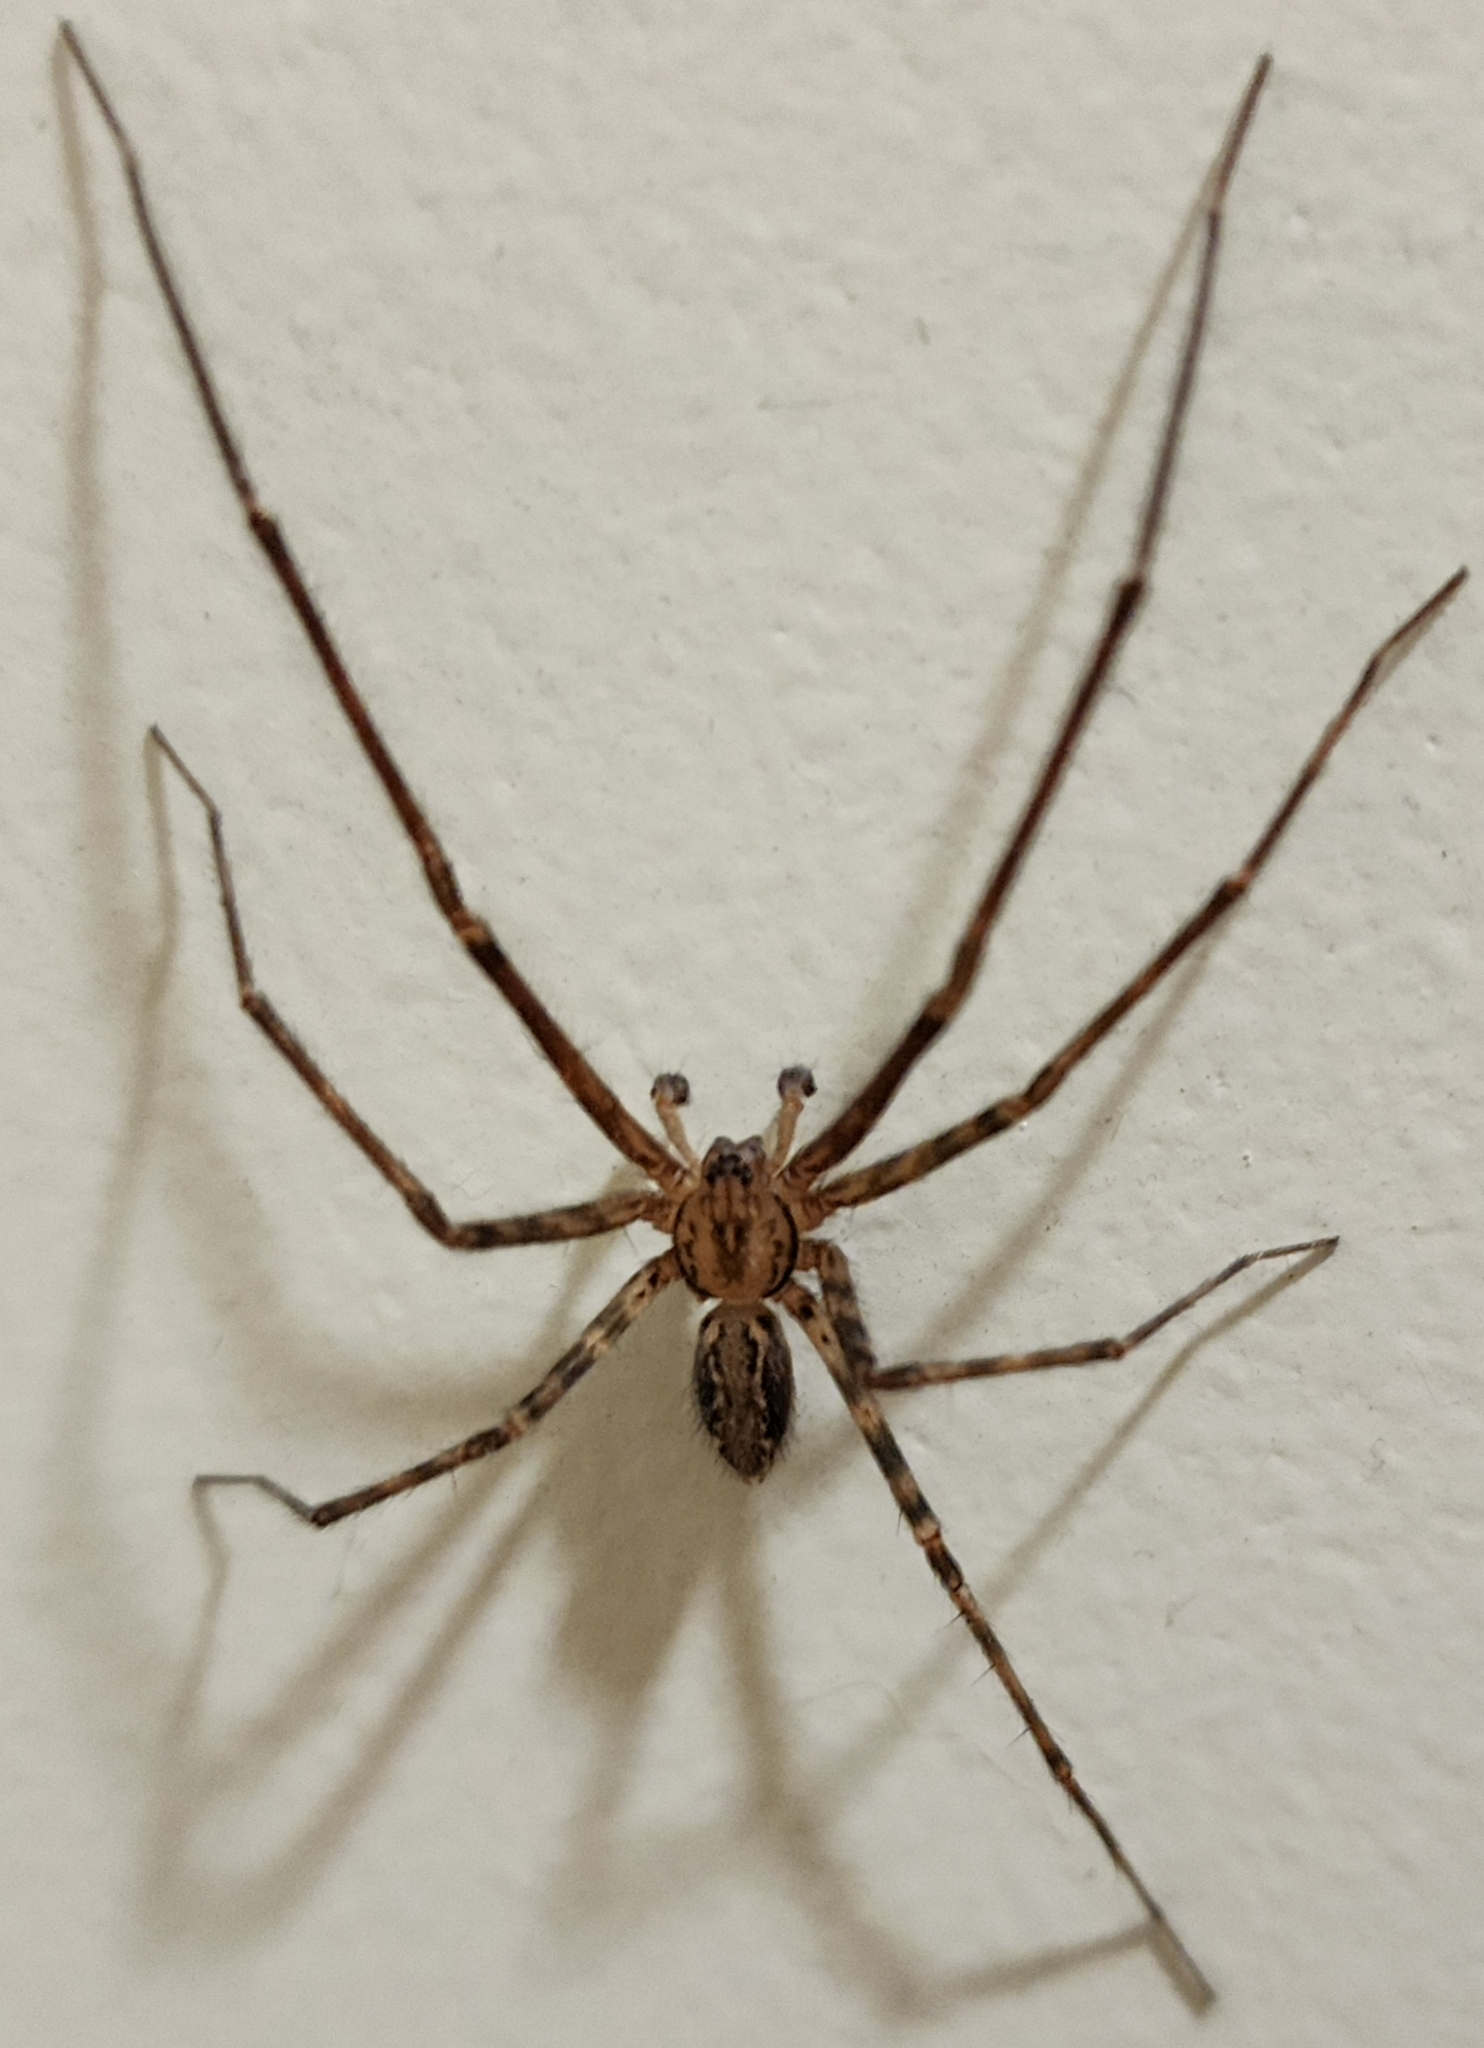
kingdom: Animalia
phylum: Arthropoda
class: Arachnida
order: Araneae
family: Stiphidiidae
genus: Stiphidion
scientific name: Stiphidion facetum
